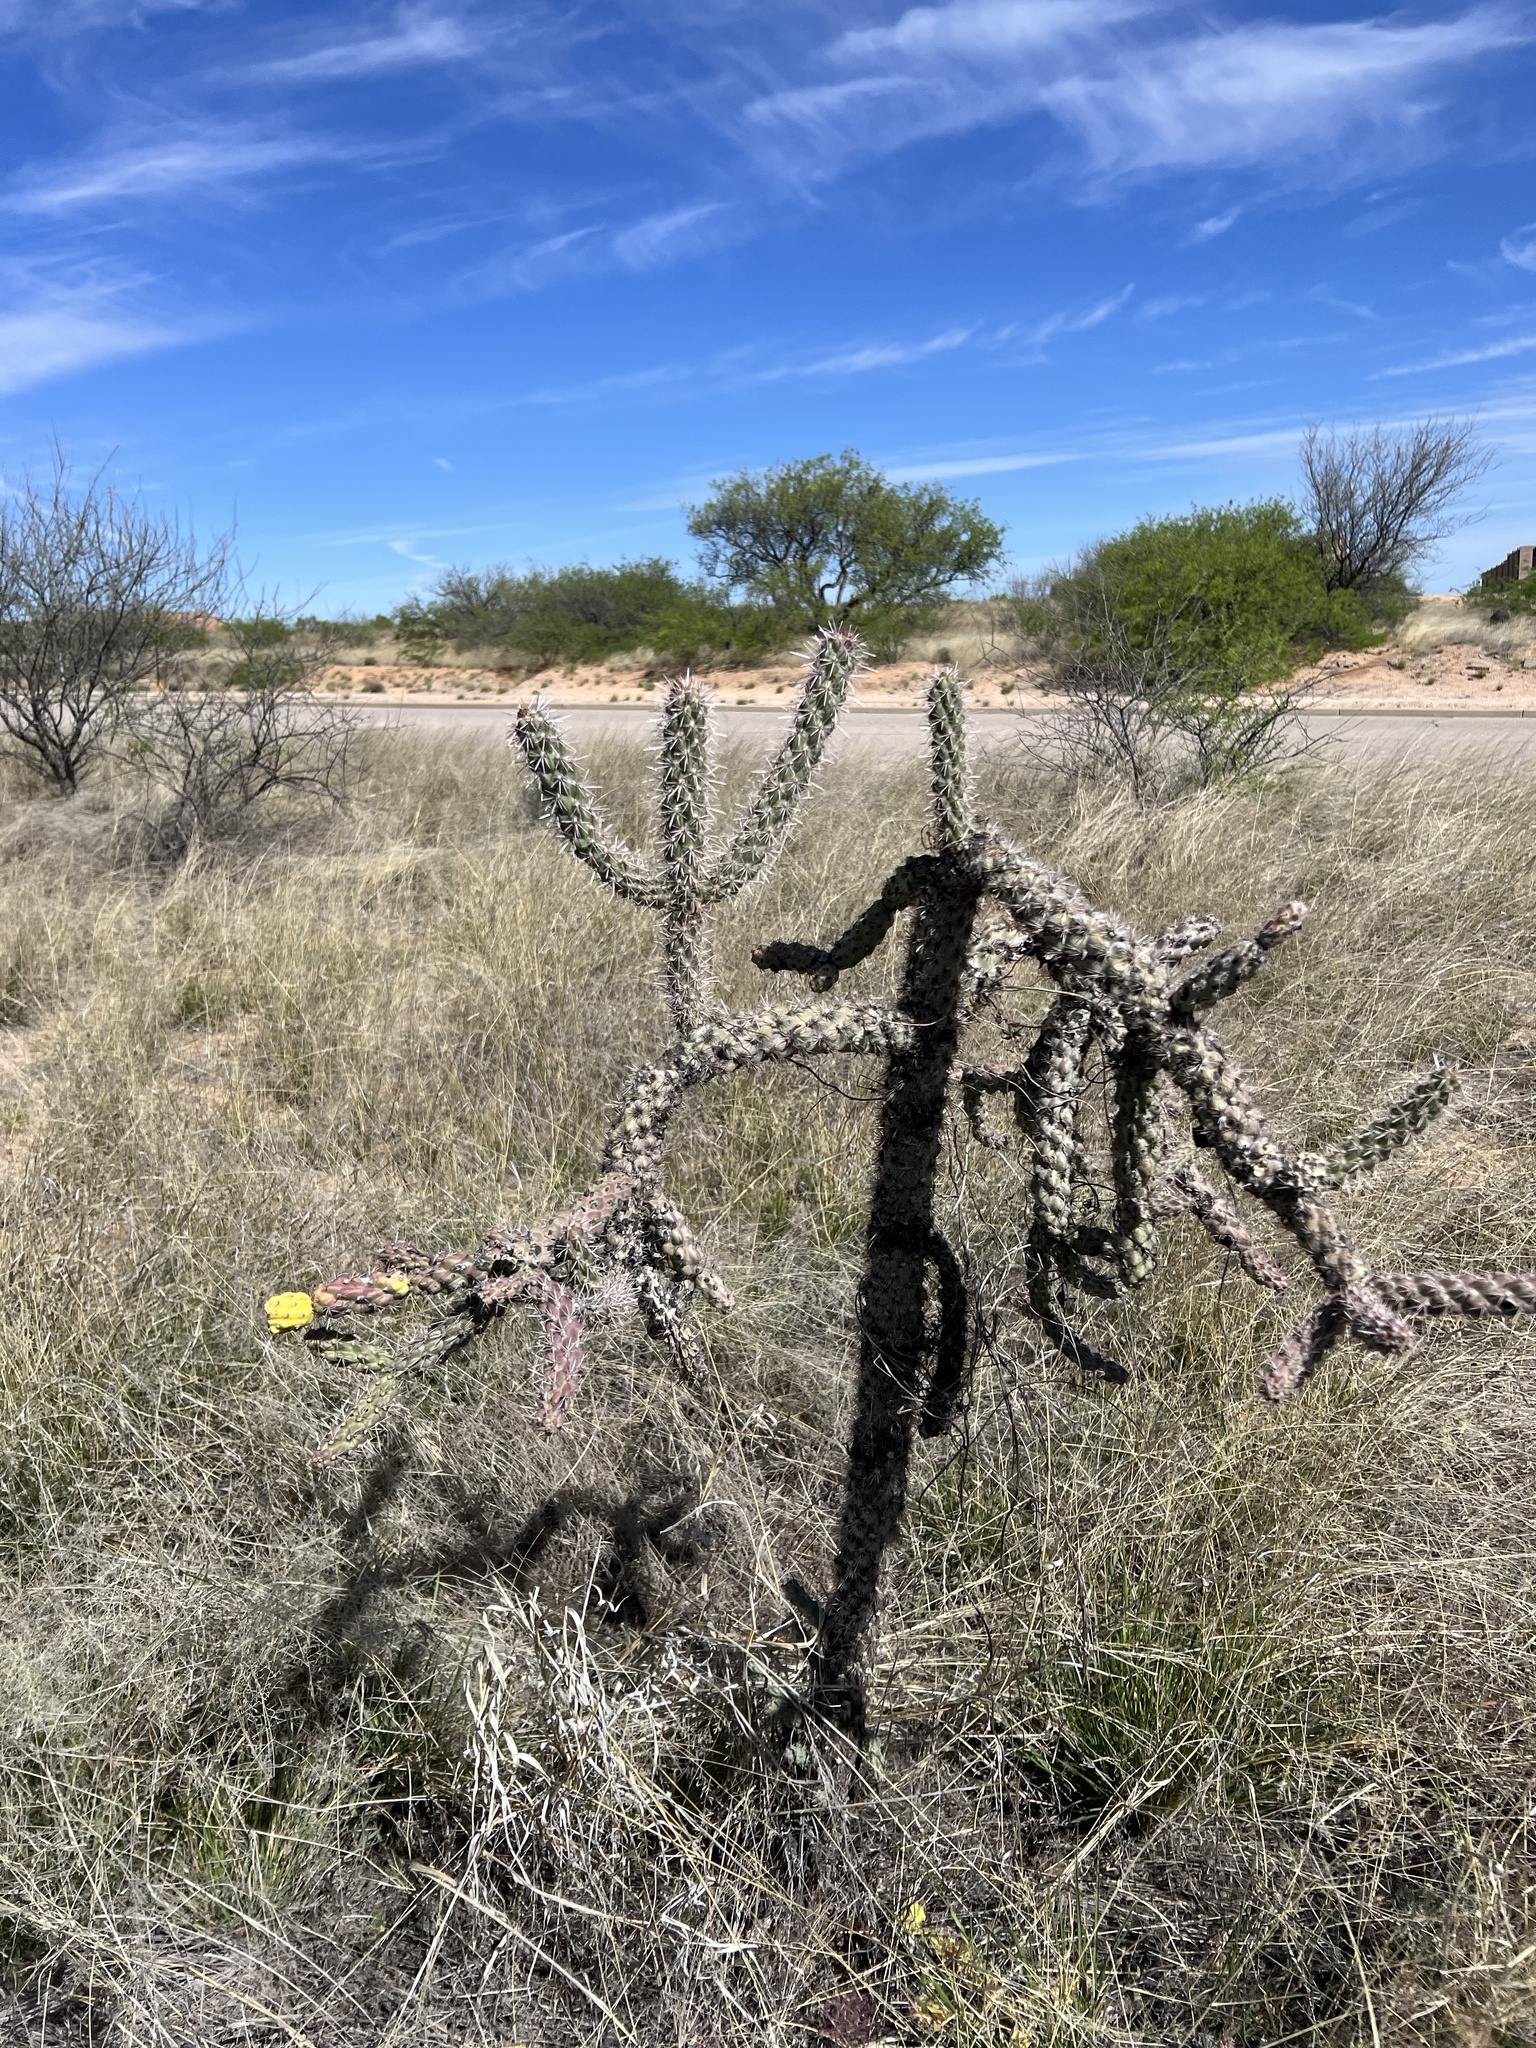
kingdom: Plantae
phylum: Tracheophyta
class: Magnoliopsida
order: Caryophyllales
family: Cactaceae
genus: Cylindropuntia
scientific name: Cylindropuntia imbricata
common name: Candelabrum cactus
